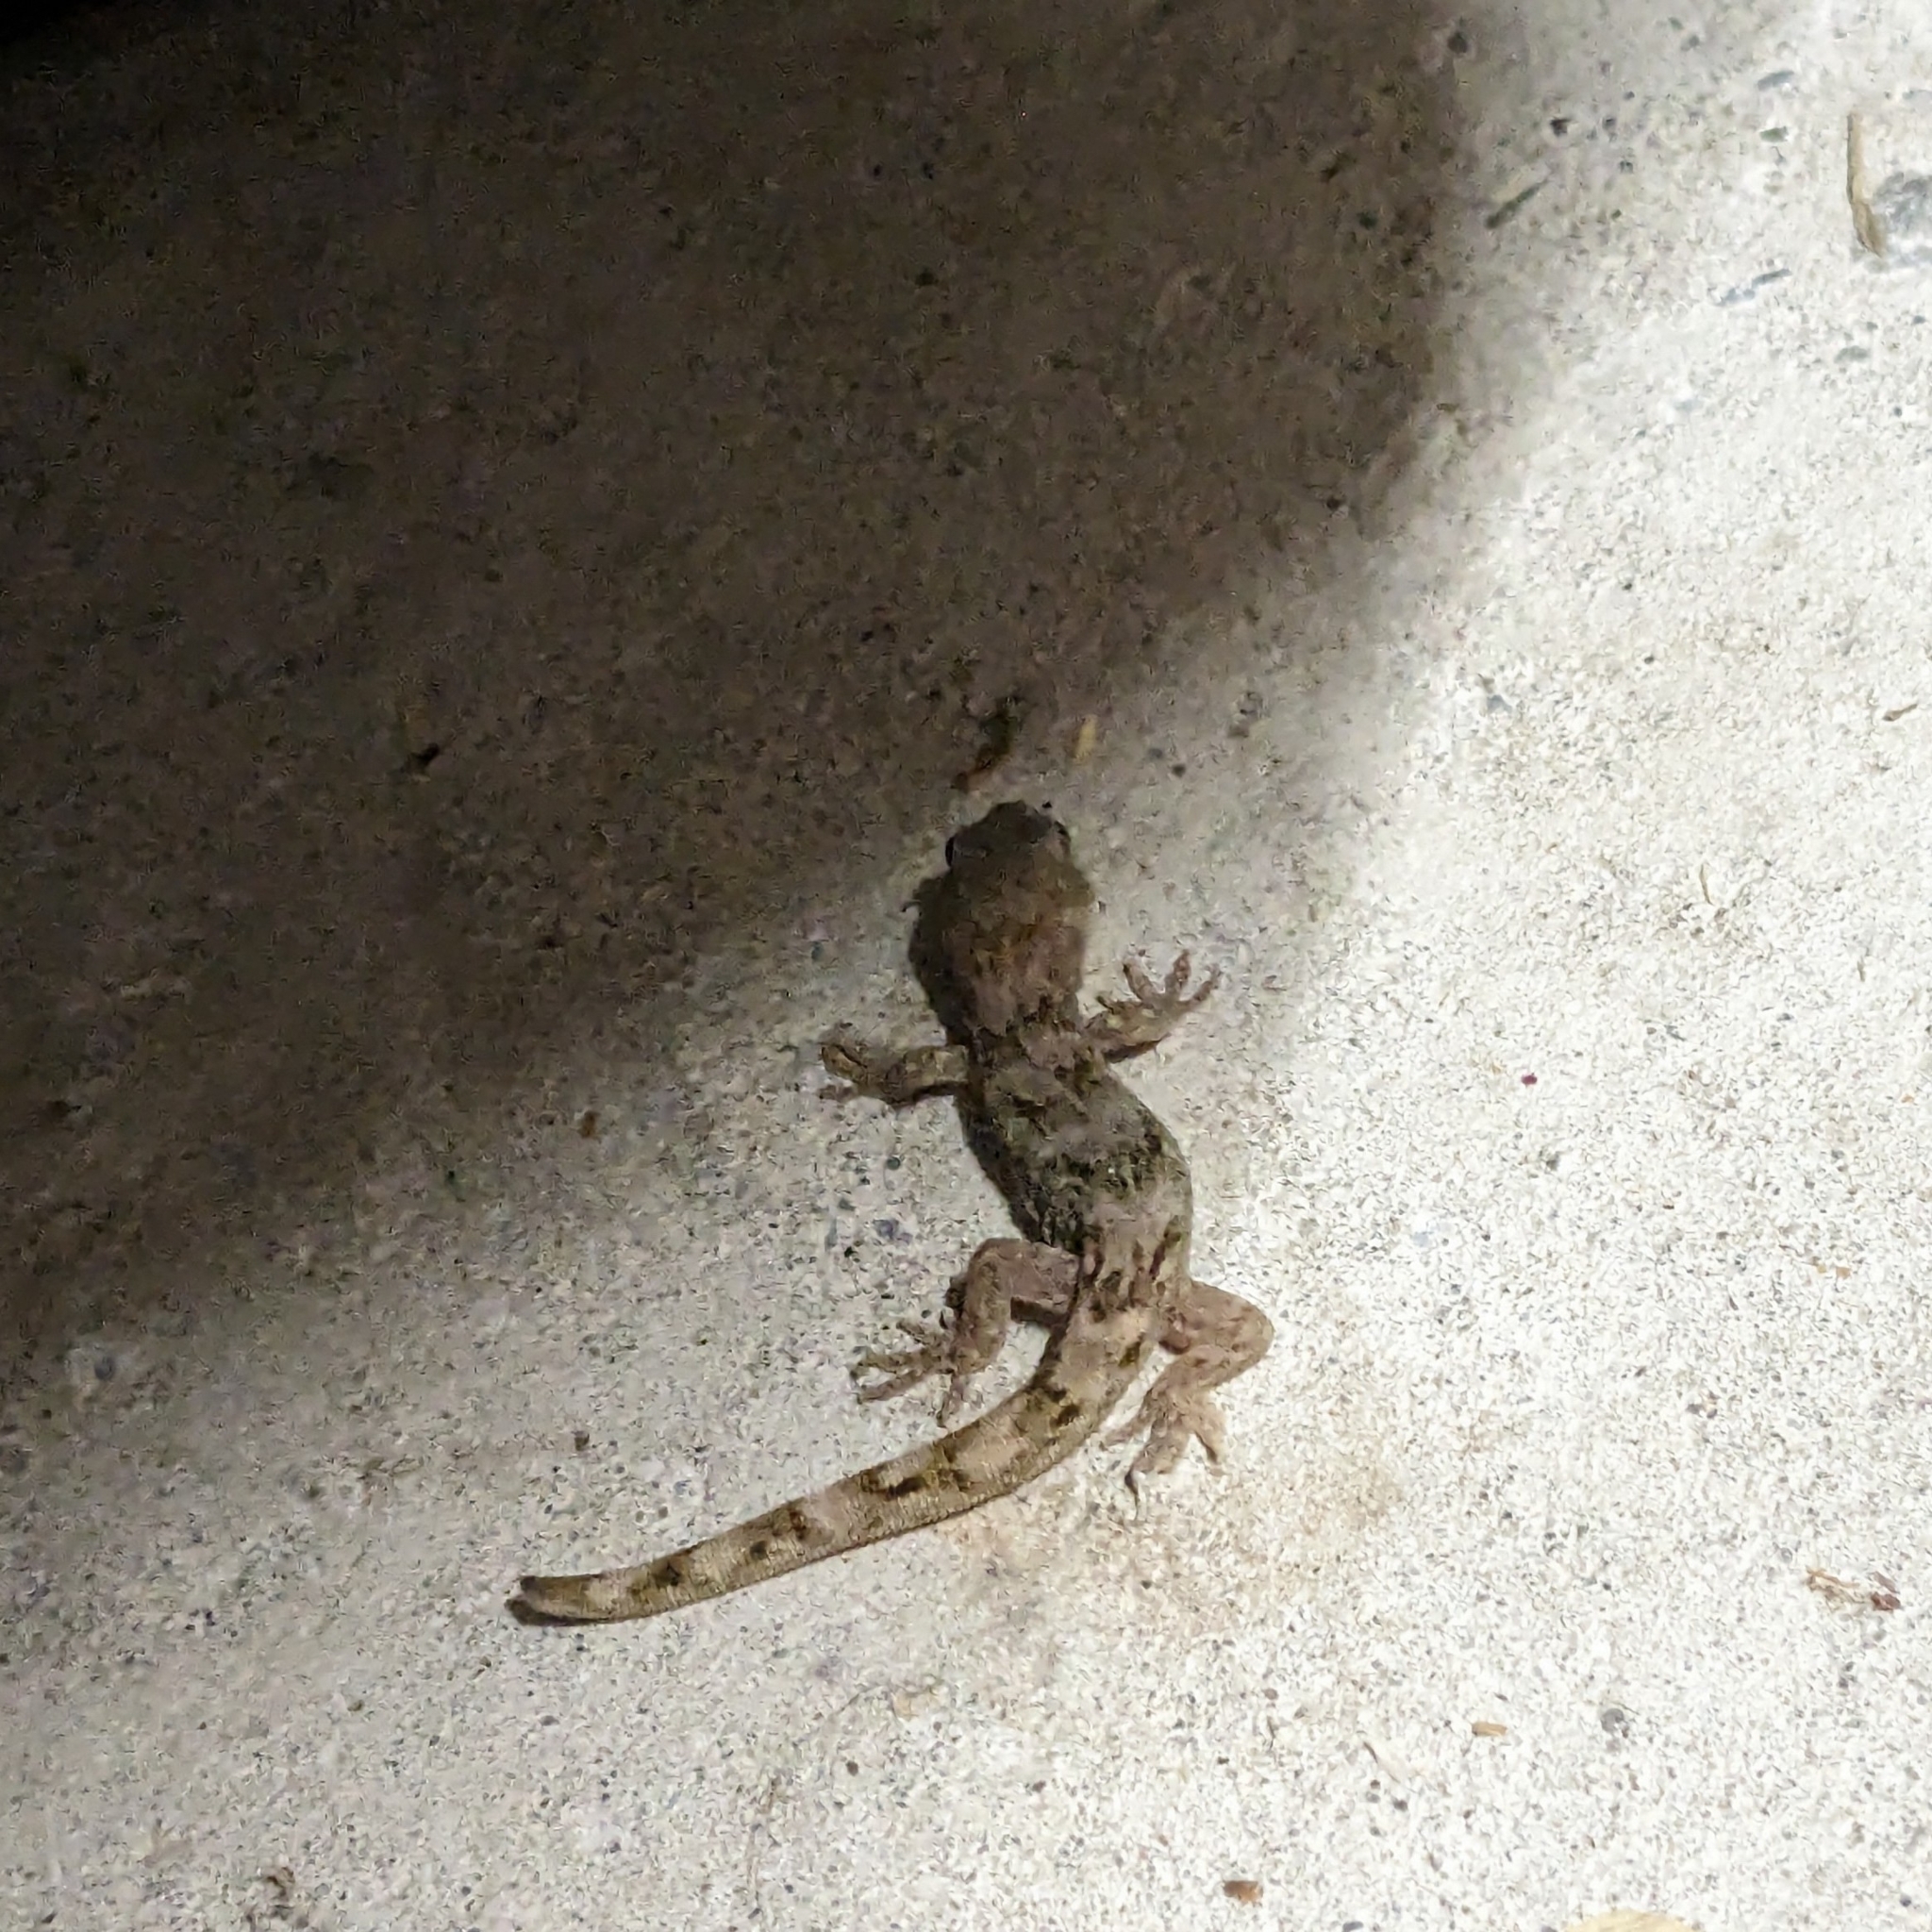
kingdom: Animalia
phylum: Chordata
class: Squamata
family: Diplodactylidae
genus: Woodworthia
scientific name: Woodworthia
